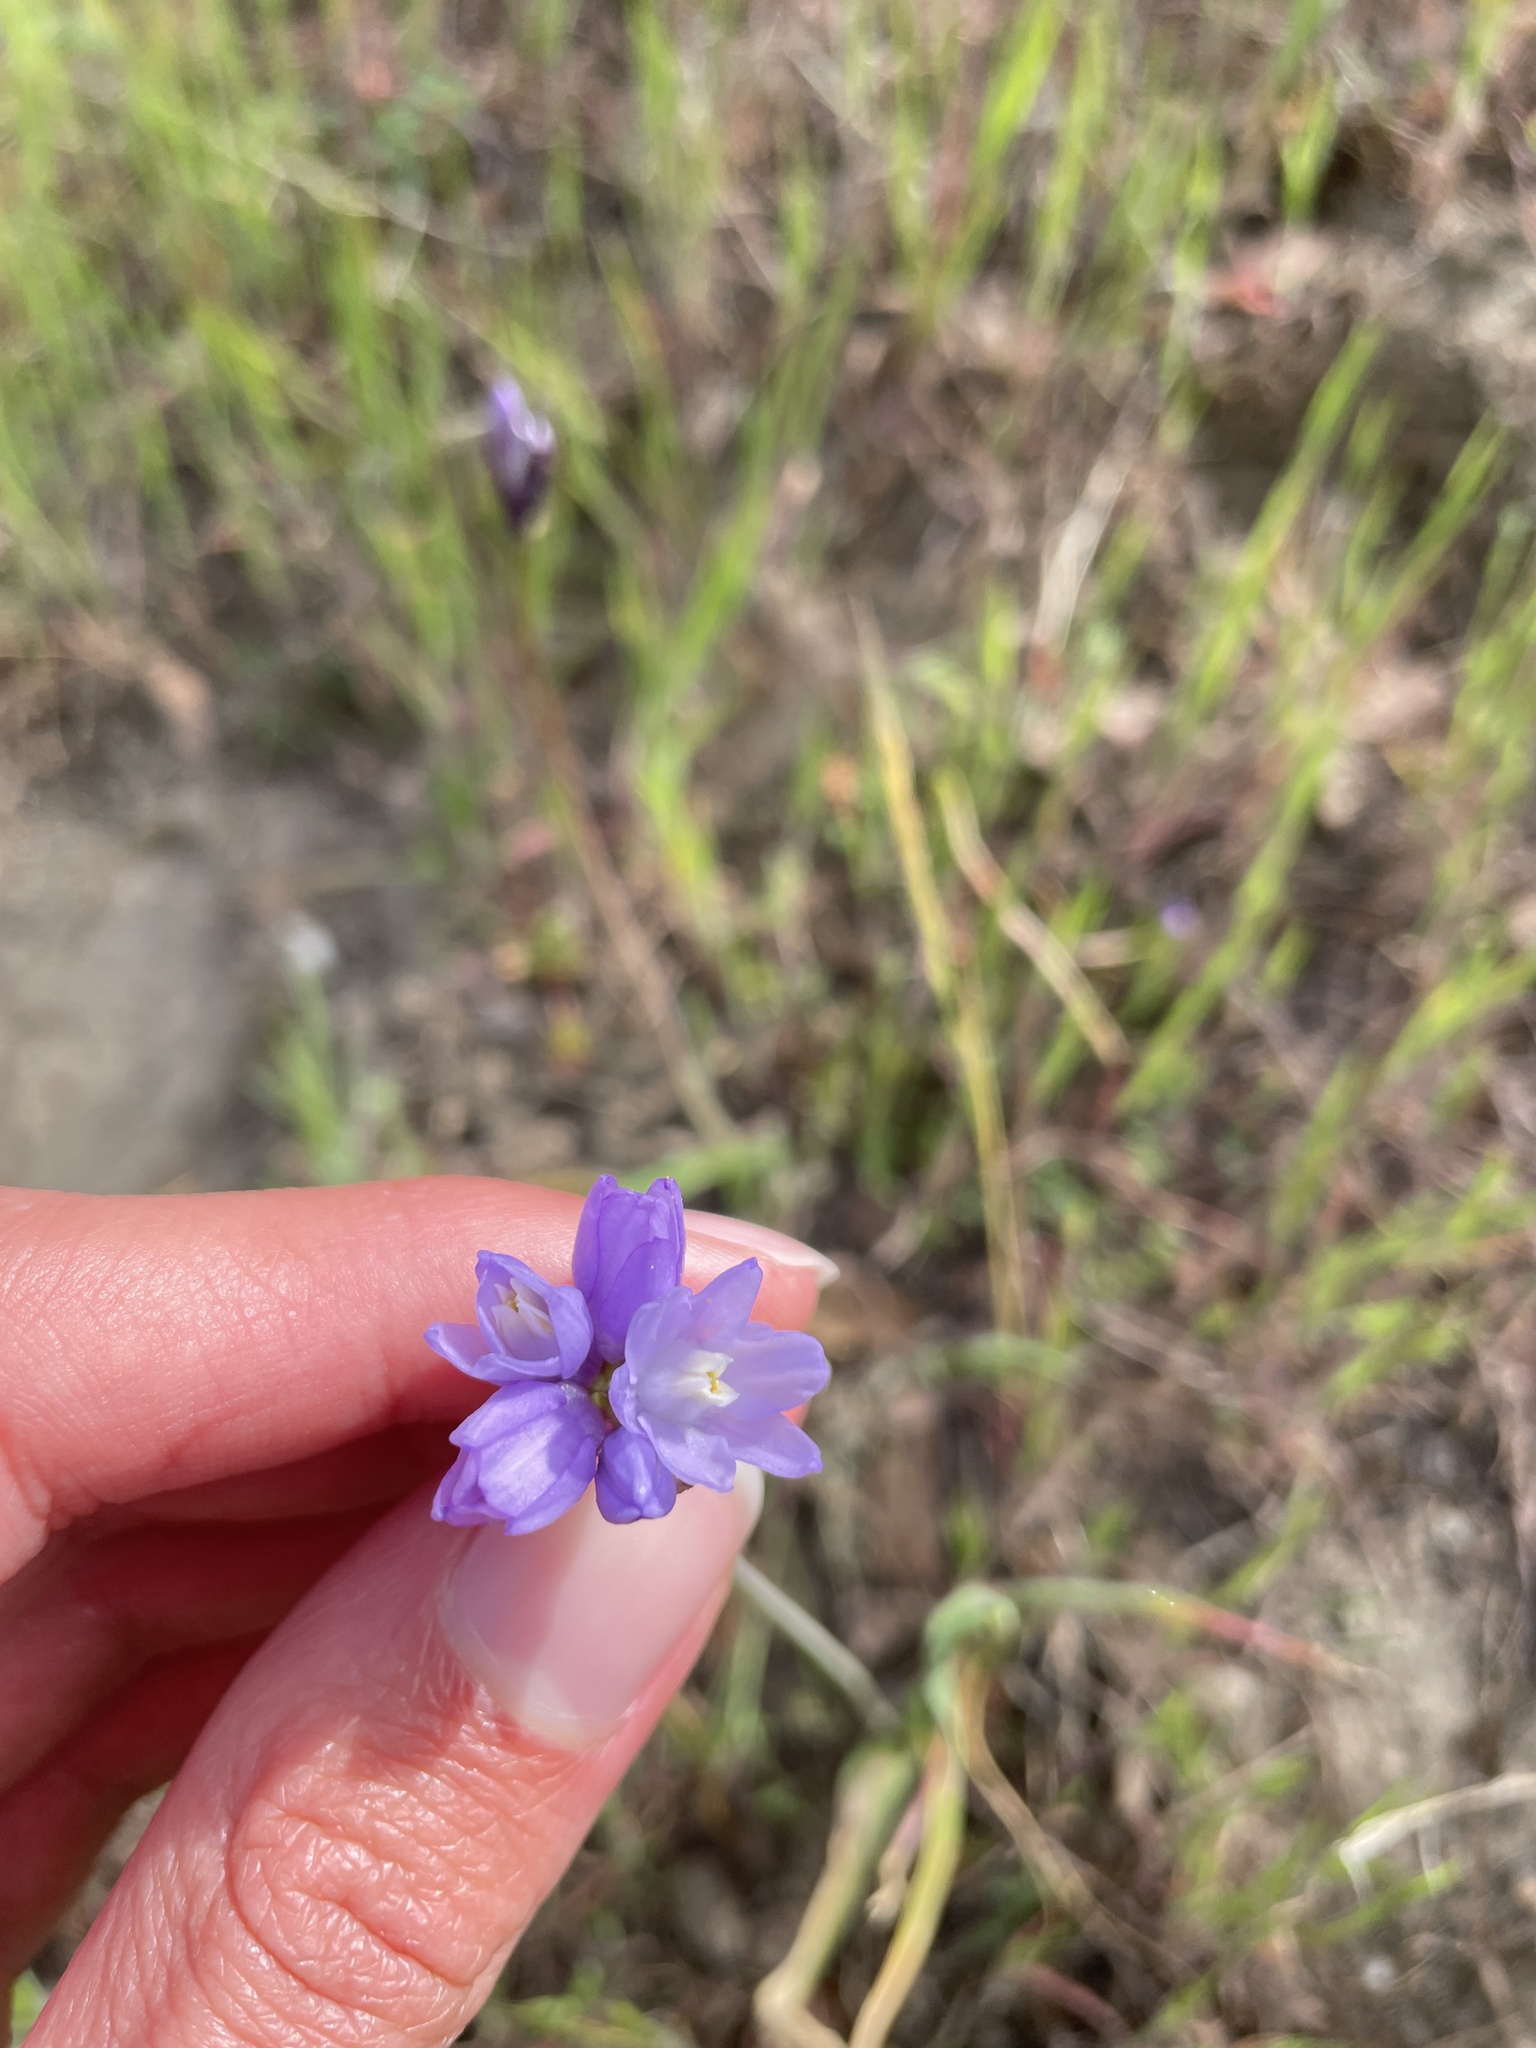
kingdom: Plantae
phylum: Tracheophyta
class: Liliopsida
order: Asparagales
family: Asparagaceae
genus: Dipterostemon
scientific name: Dipterostemon capitatus
